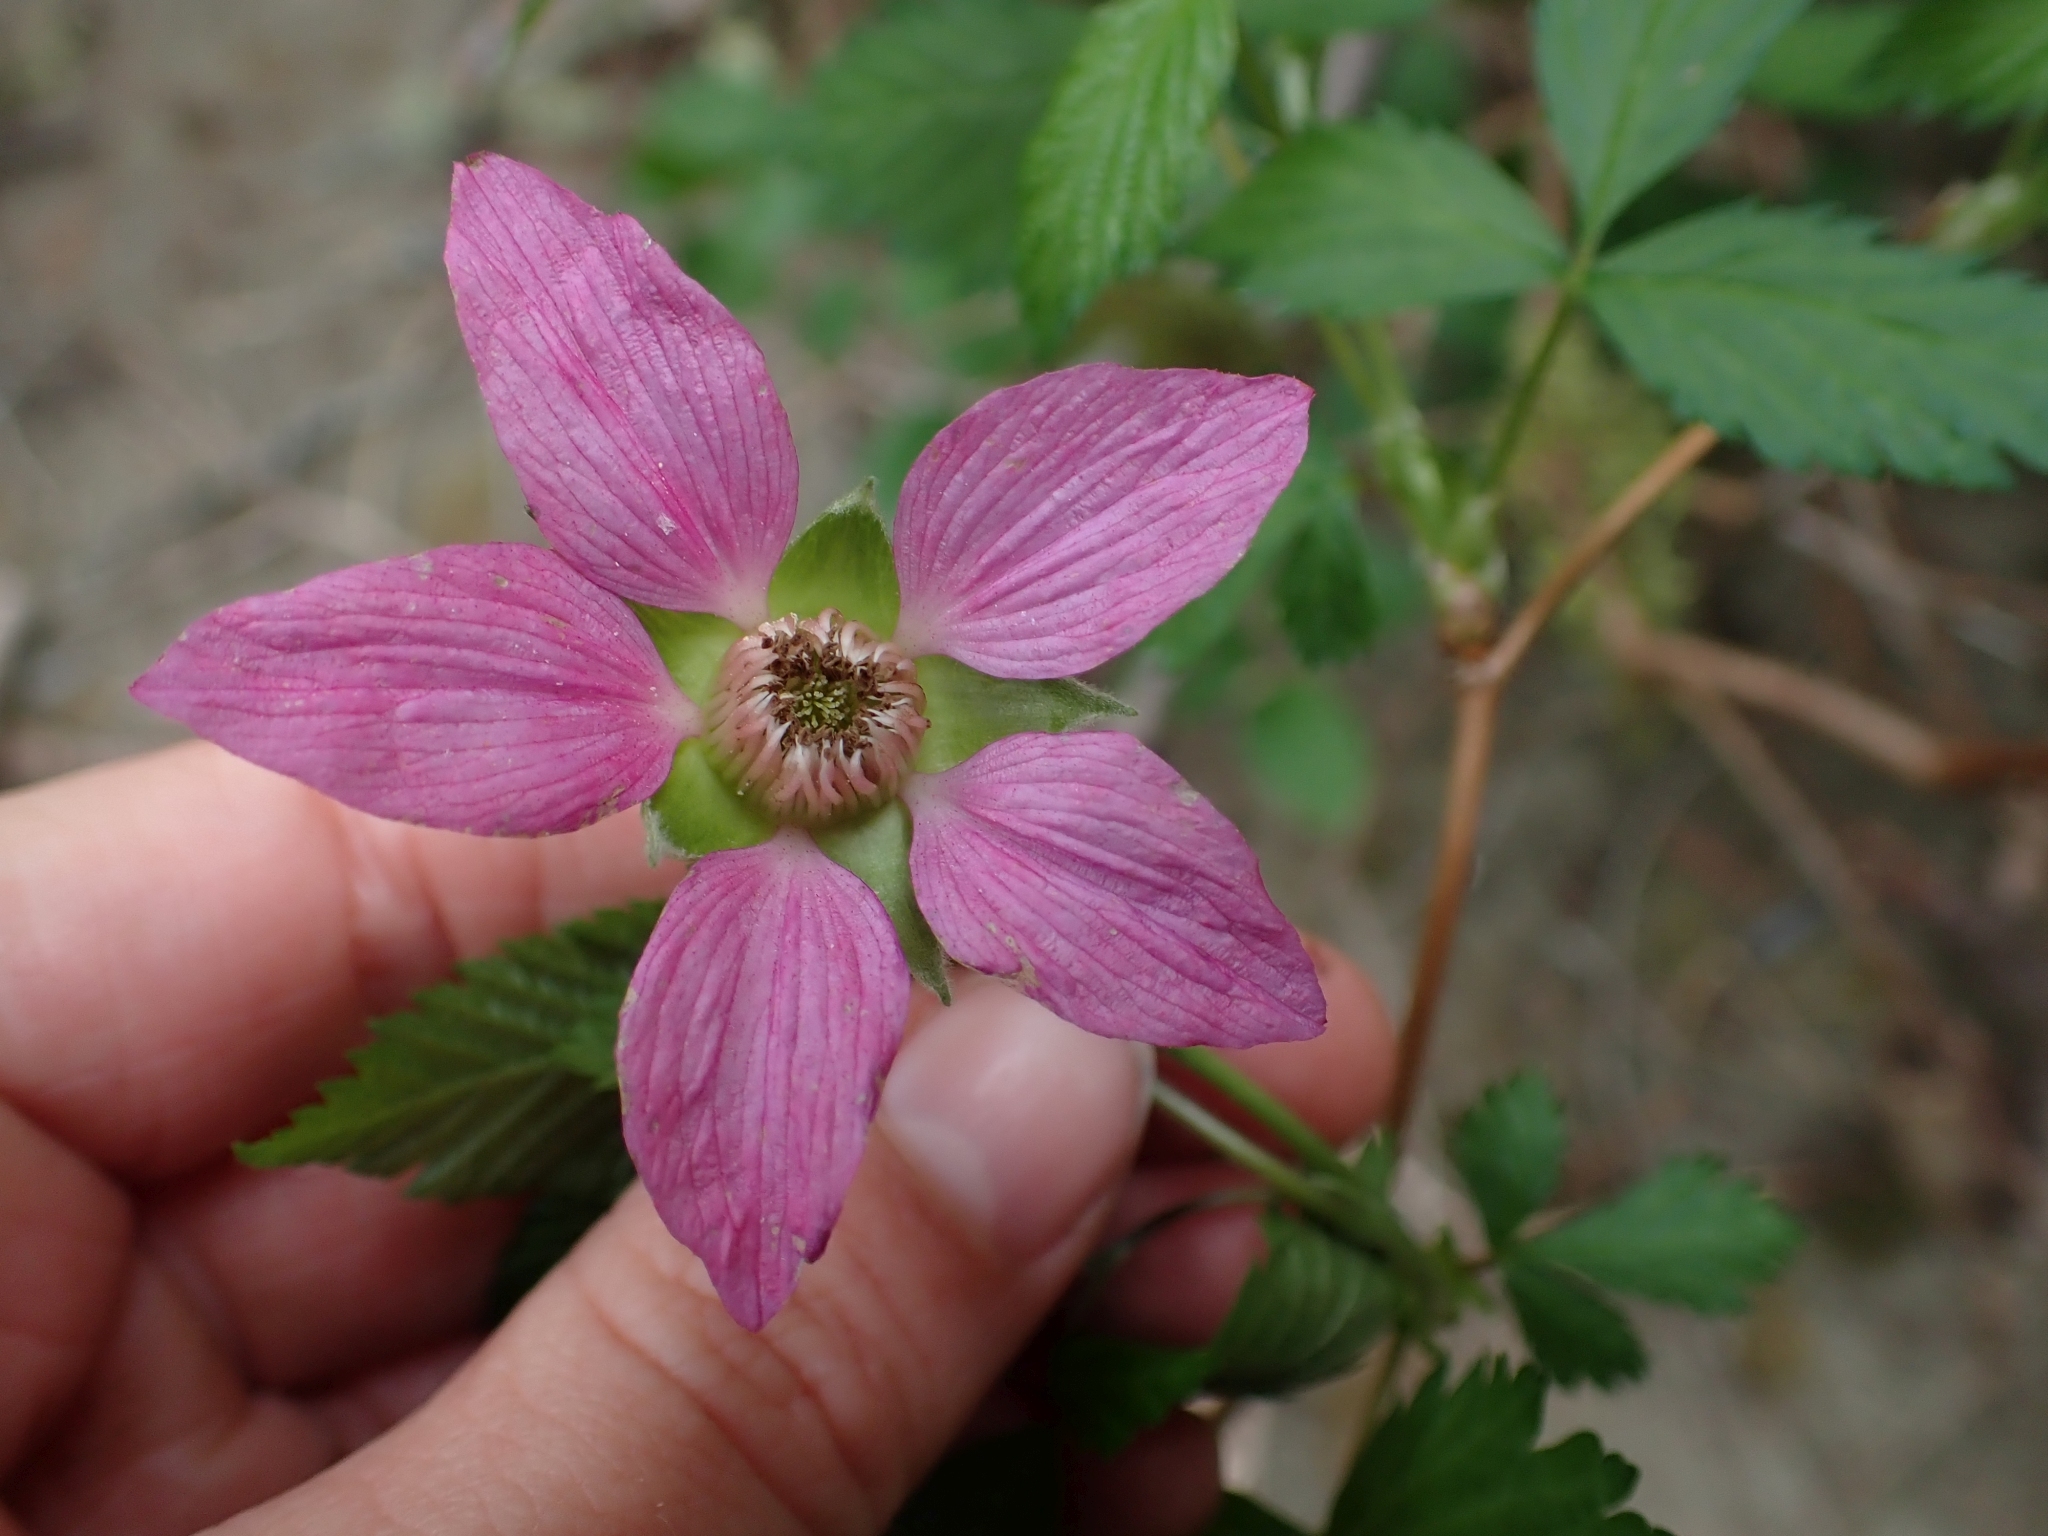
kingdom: Plantae
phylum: Tracheophyta
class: Magnoliopsida
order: Rosales
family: Rosaceae
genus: Rubus
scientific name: Rubus spectabilis
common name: Salmonberry
